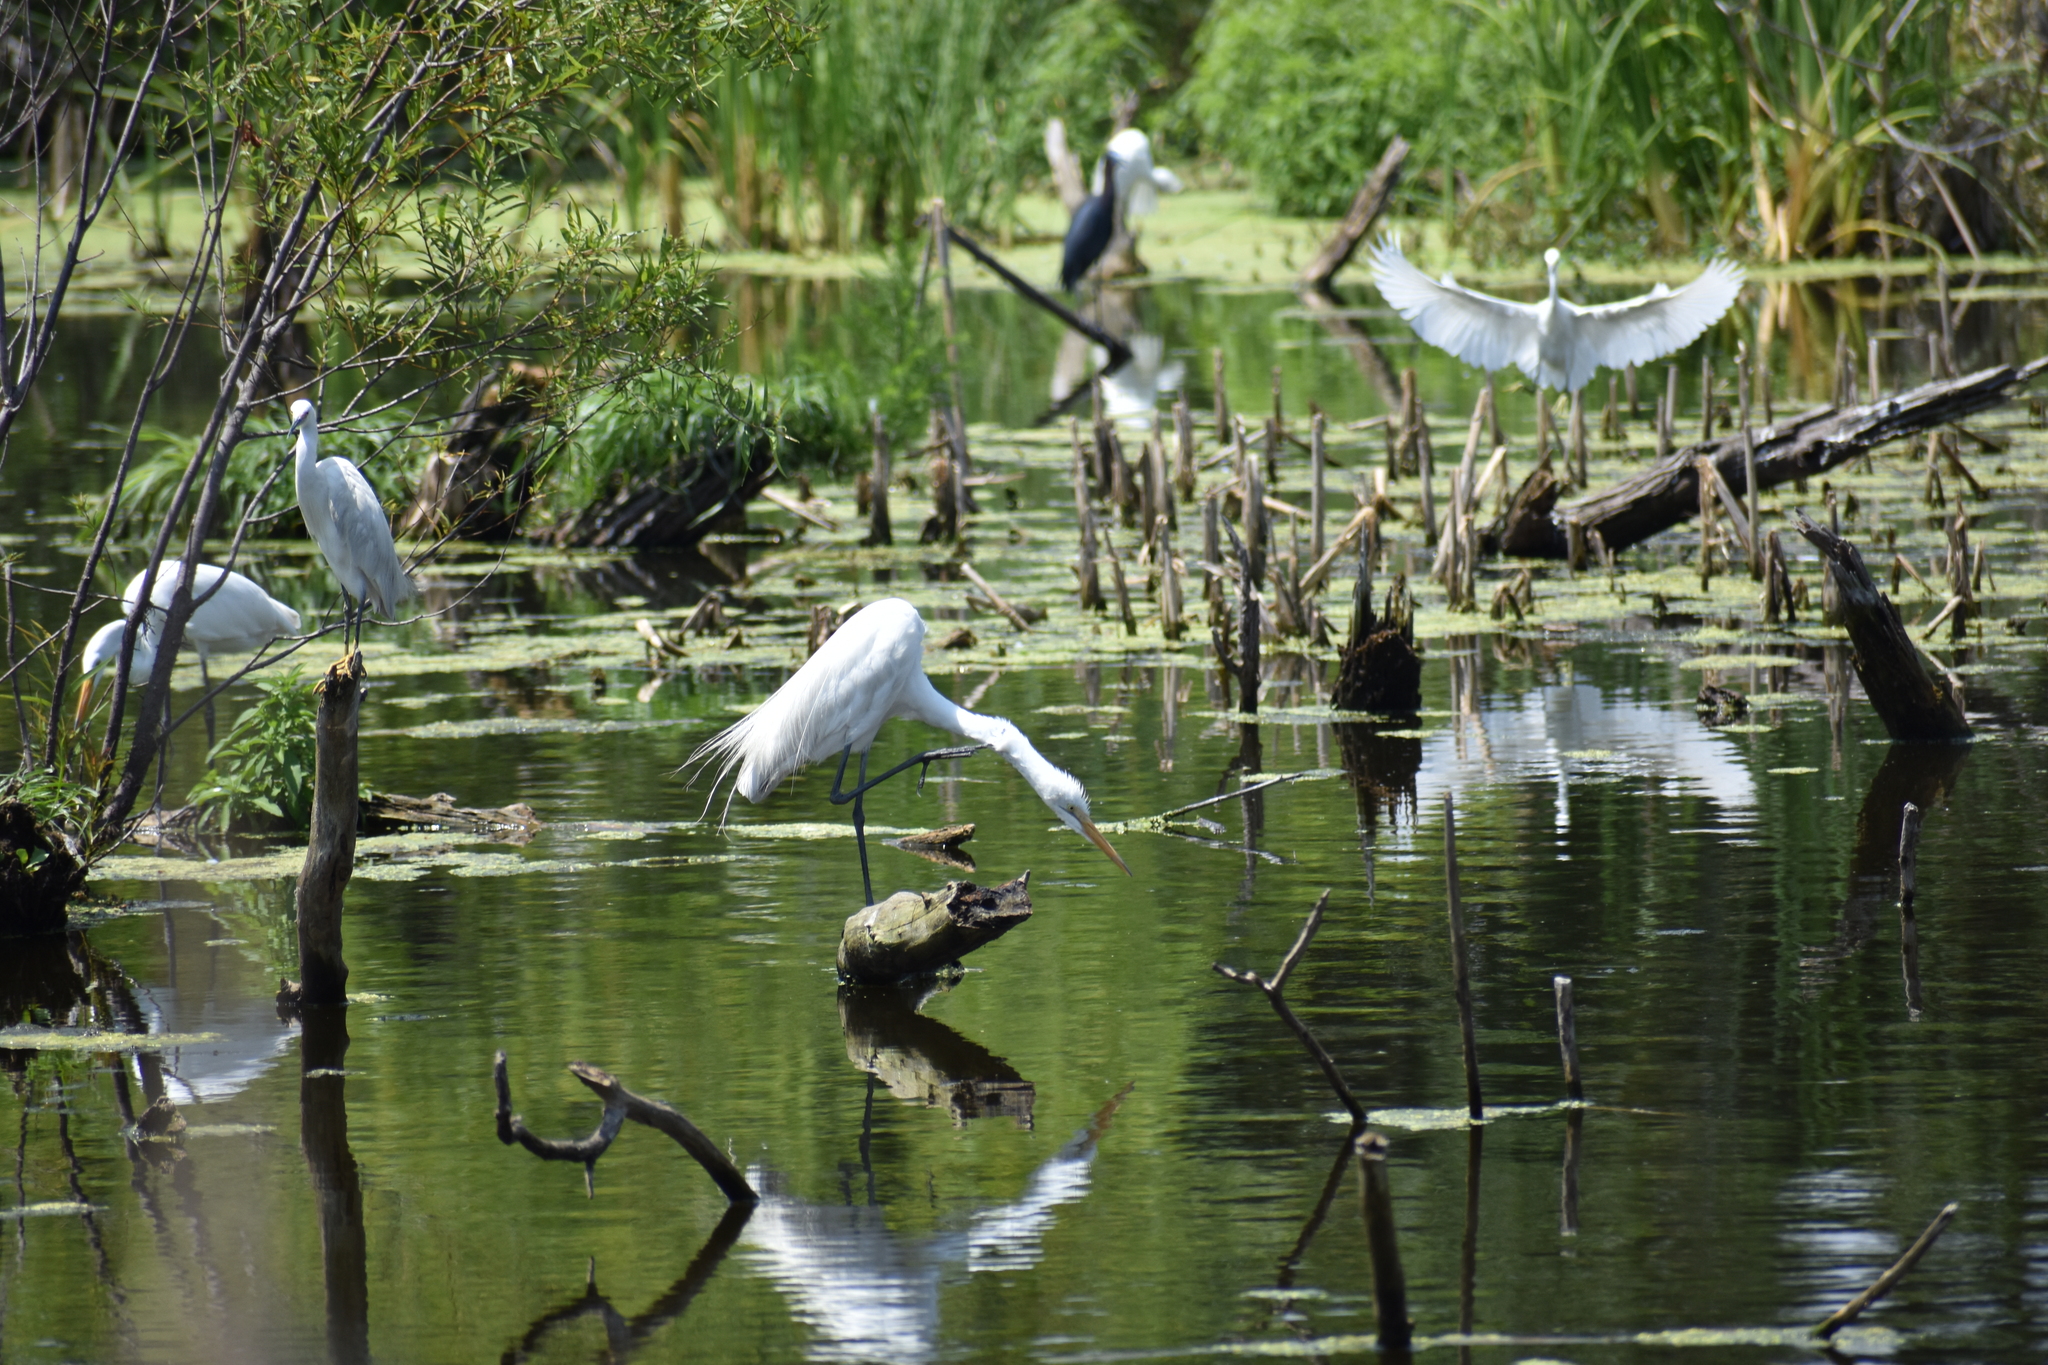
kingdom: Animalia
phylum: Chordata
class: Aves
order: Pelecaniformes
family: Ardeidae
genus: Ardea
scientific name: Ardea alba
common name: Great egret
